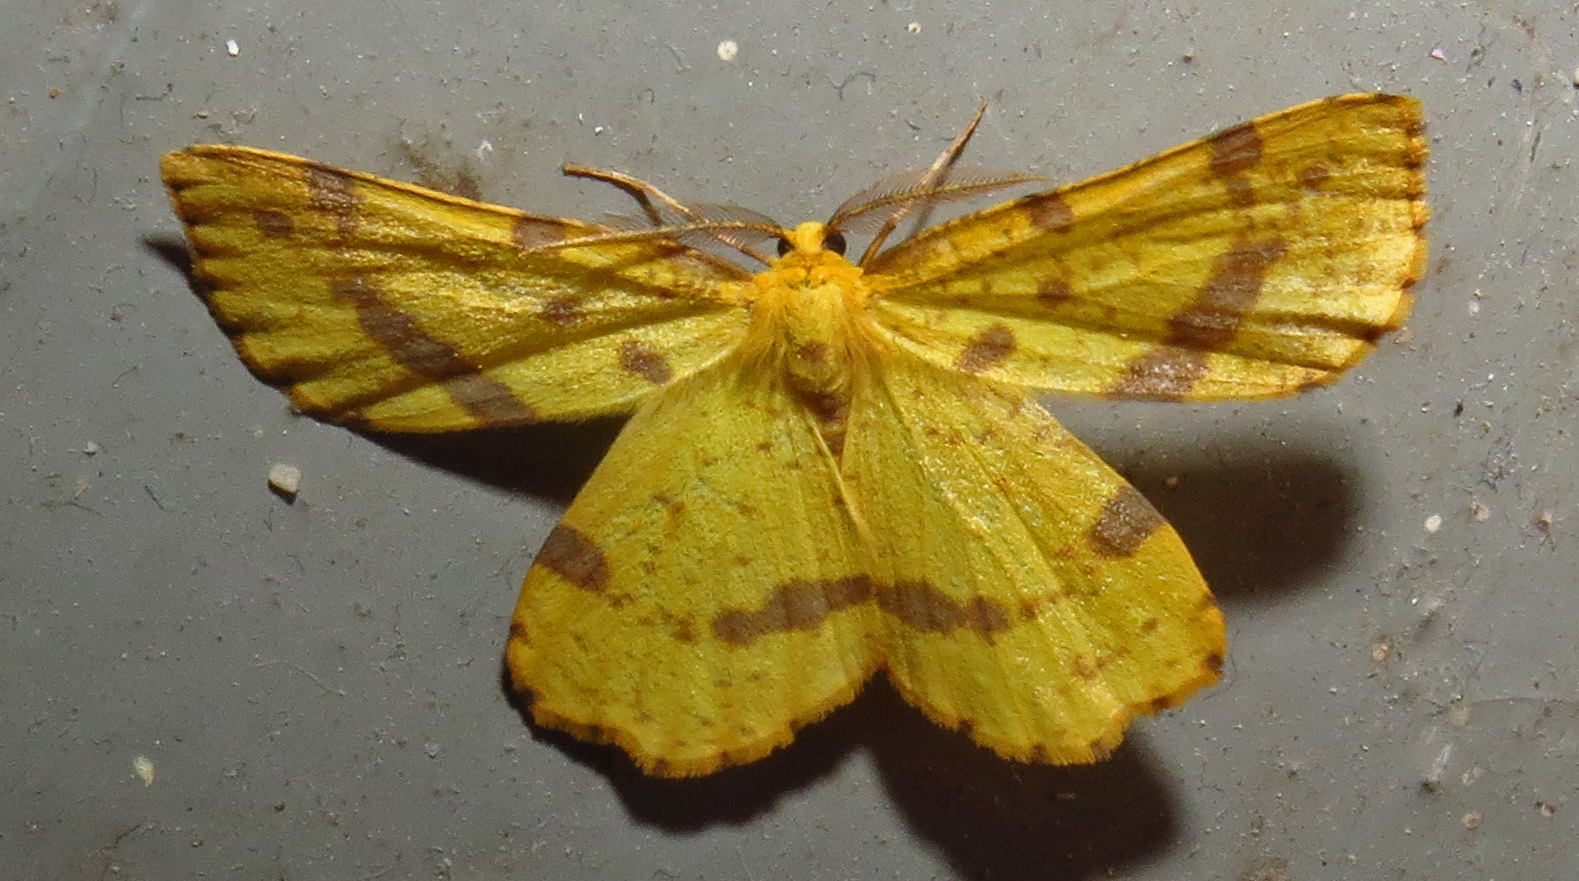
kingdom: Animalia
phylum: Arthropoda
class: Insecta
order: Lepidoptera
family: Geometridae
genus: Xanthotype
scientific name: Xanthotype
